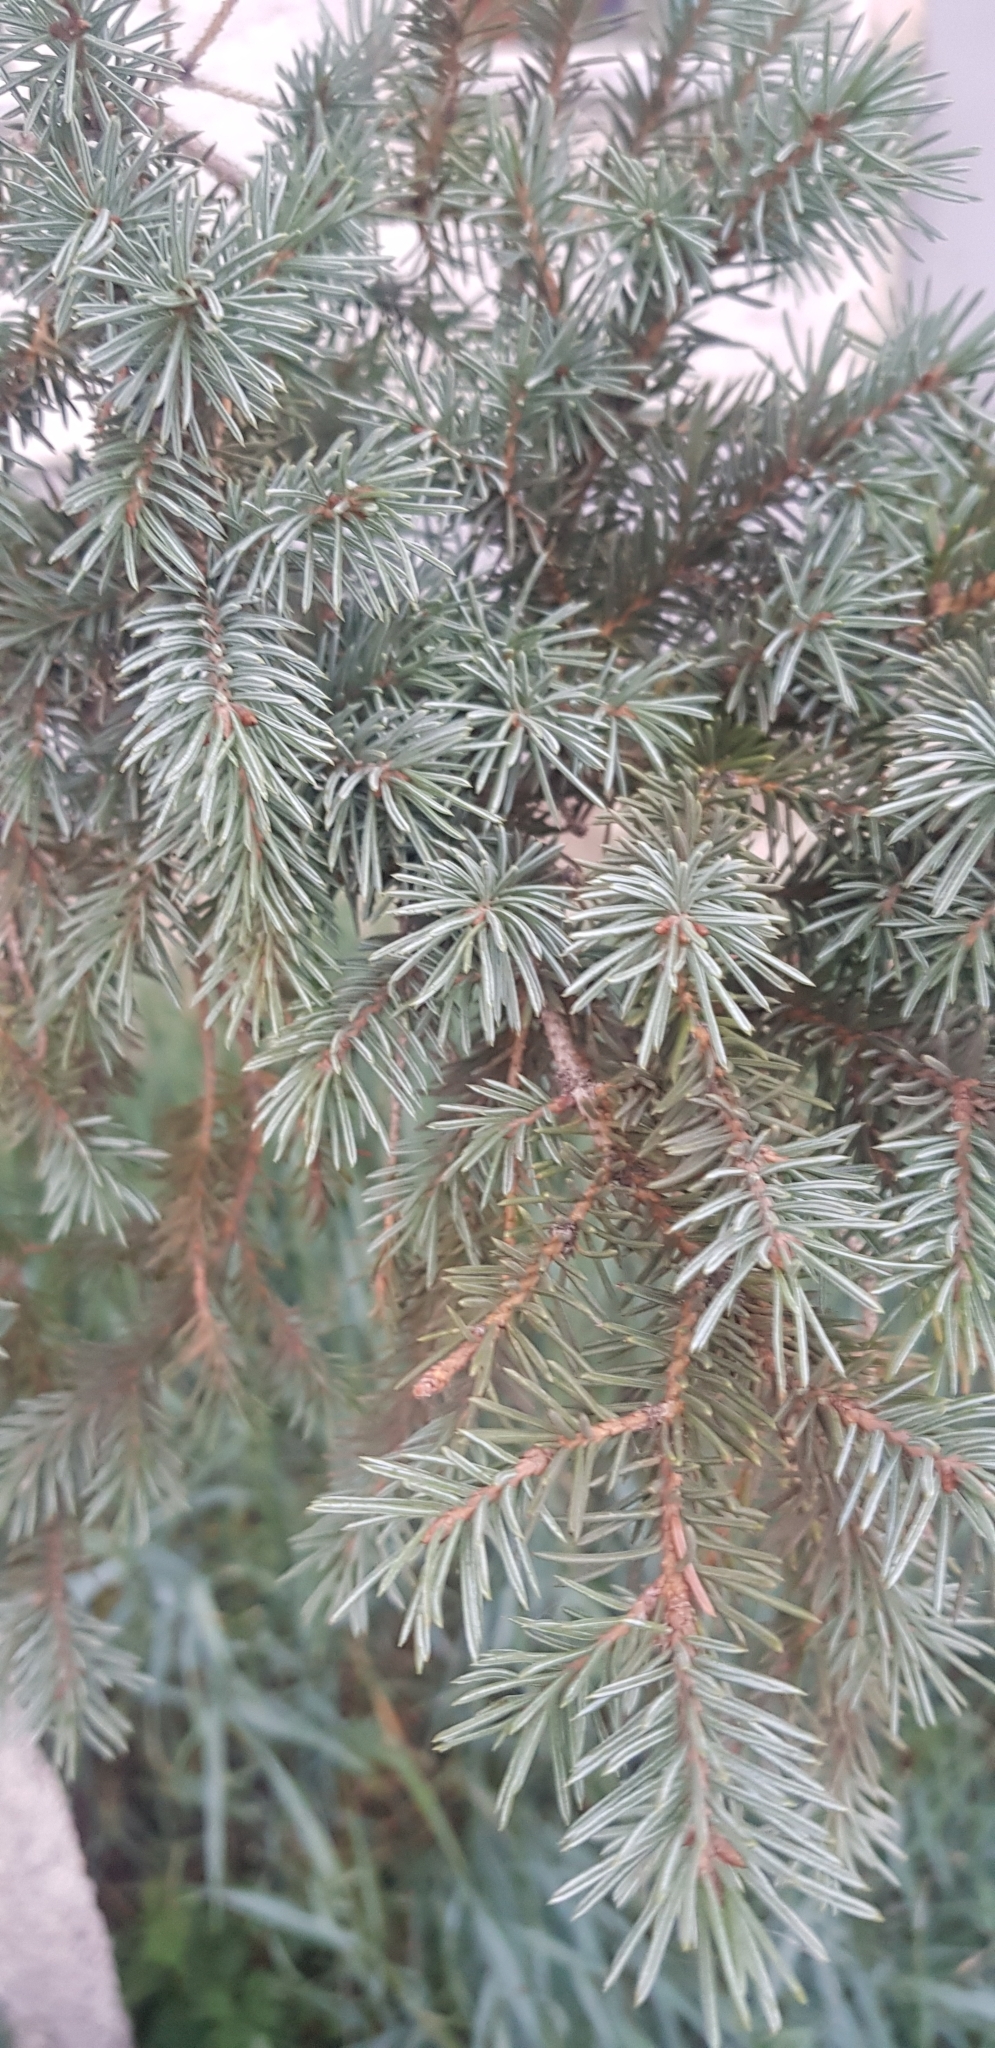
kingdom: Plantae
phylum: Tracheophyta
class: Pinopsida
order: Pinales
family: Pinaceae
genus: Picea
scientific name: Picea obovata
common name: Siberian spruce
